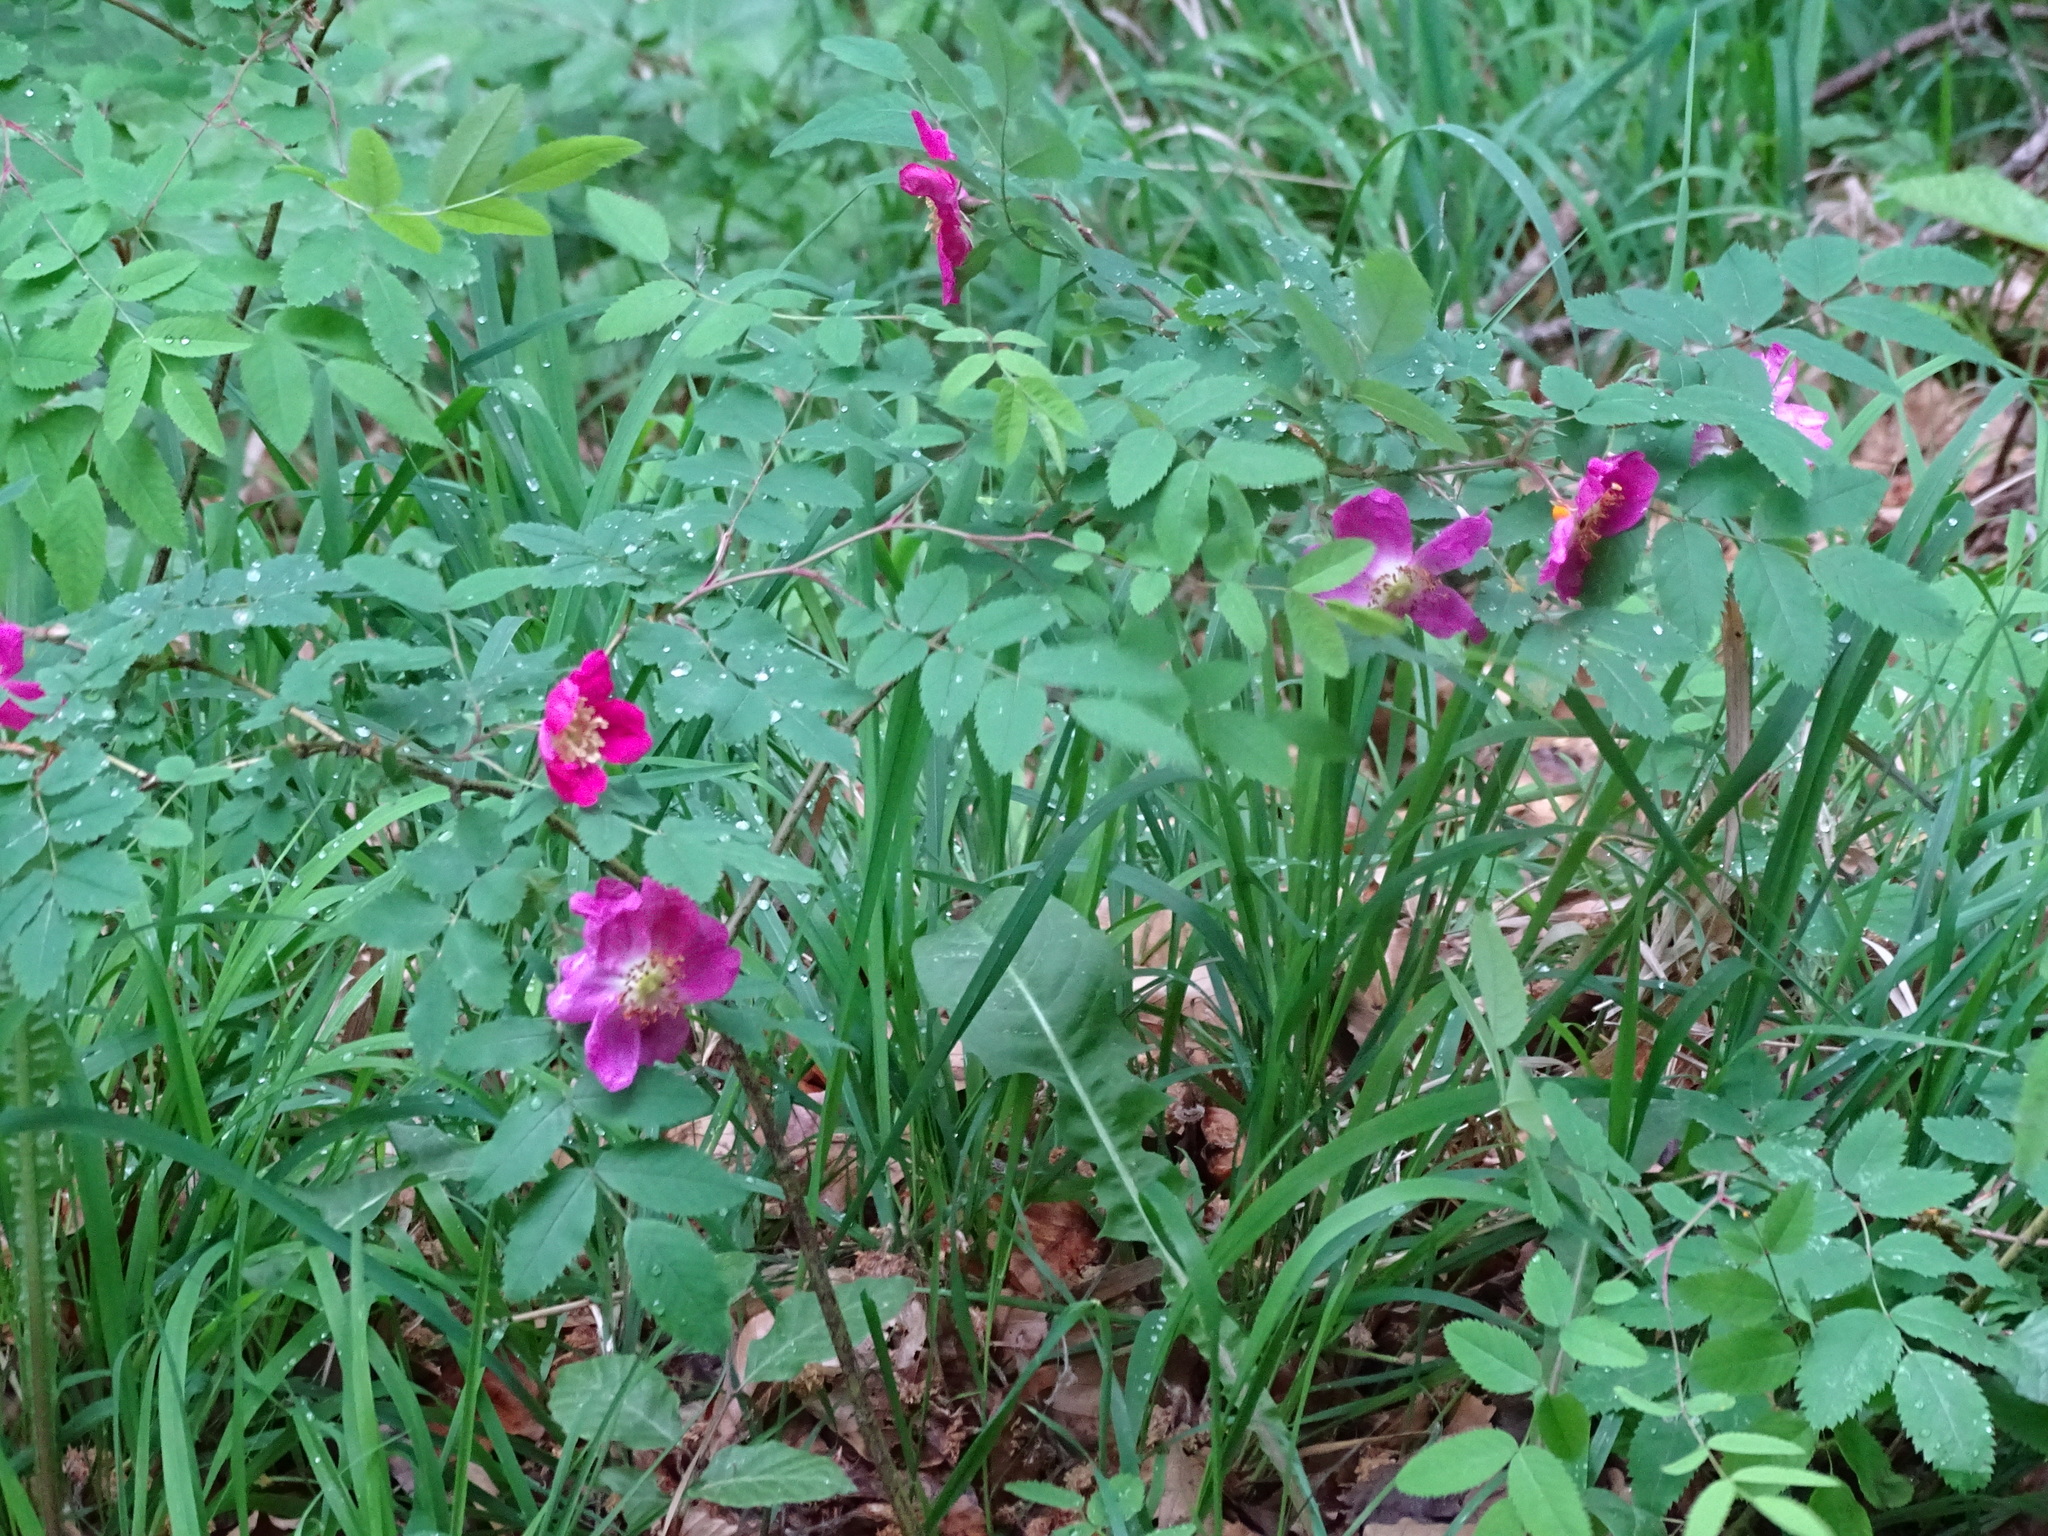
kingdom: Plantae
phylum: Tracheophyta
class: Magnoliopsida
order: Rosales
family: Rosaceae
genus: Rosa
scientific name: Rosa pendulina
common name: Alpine rose
